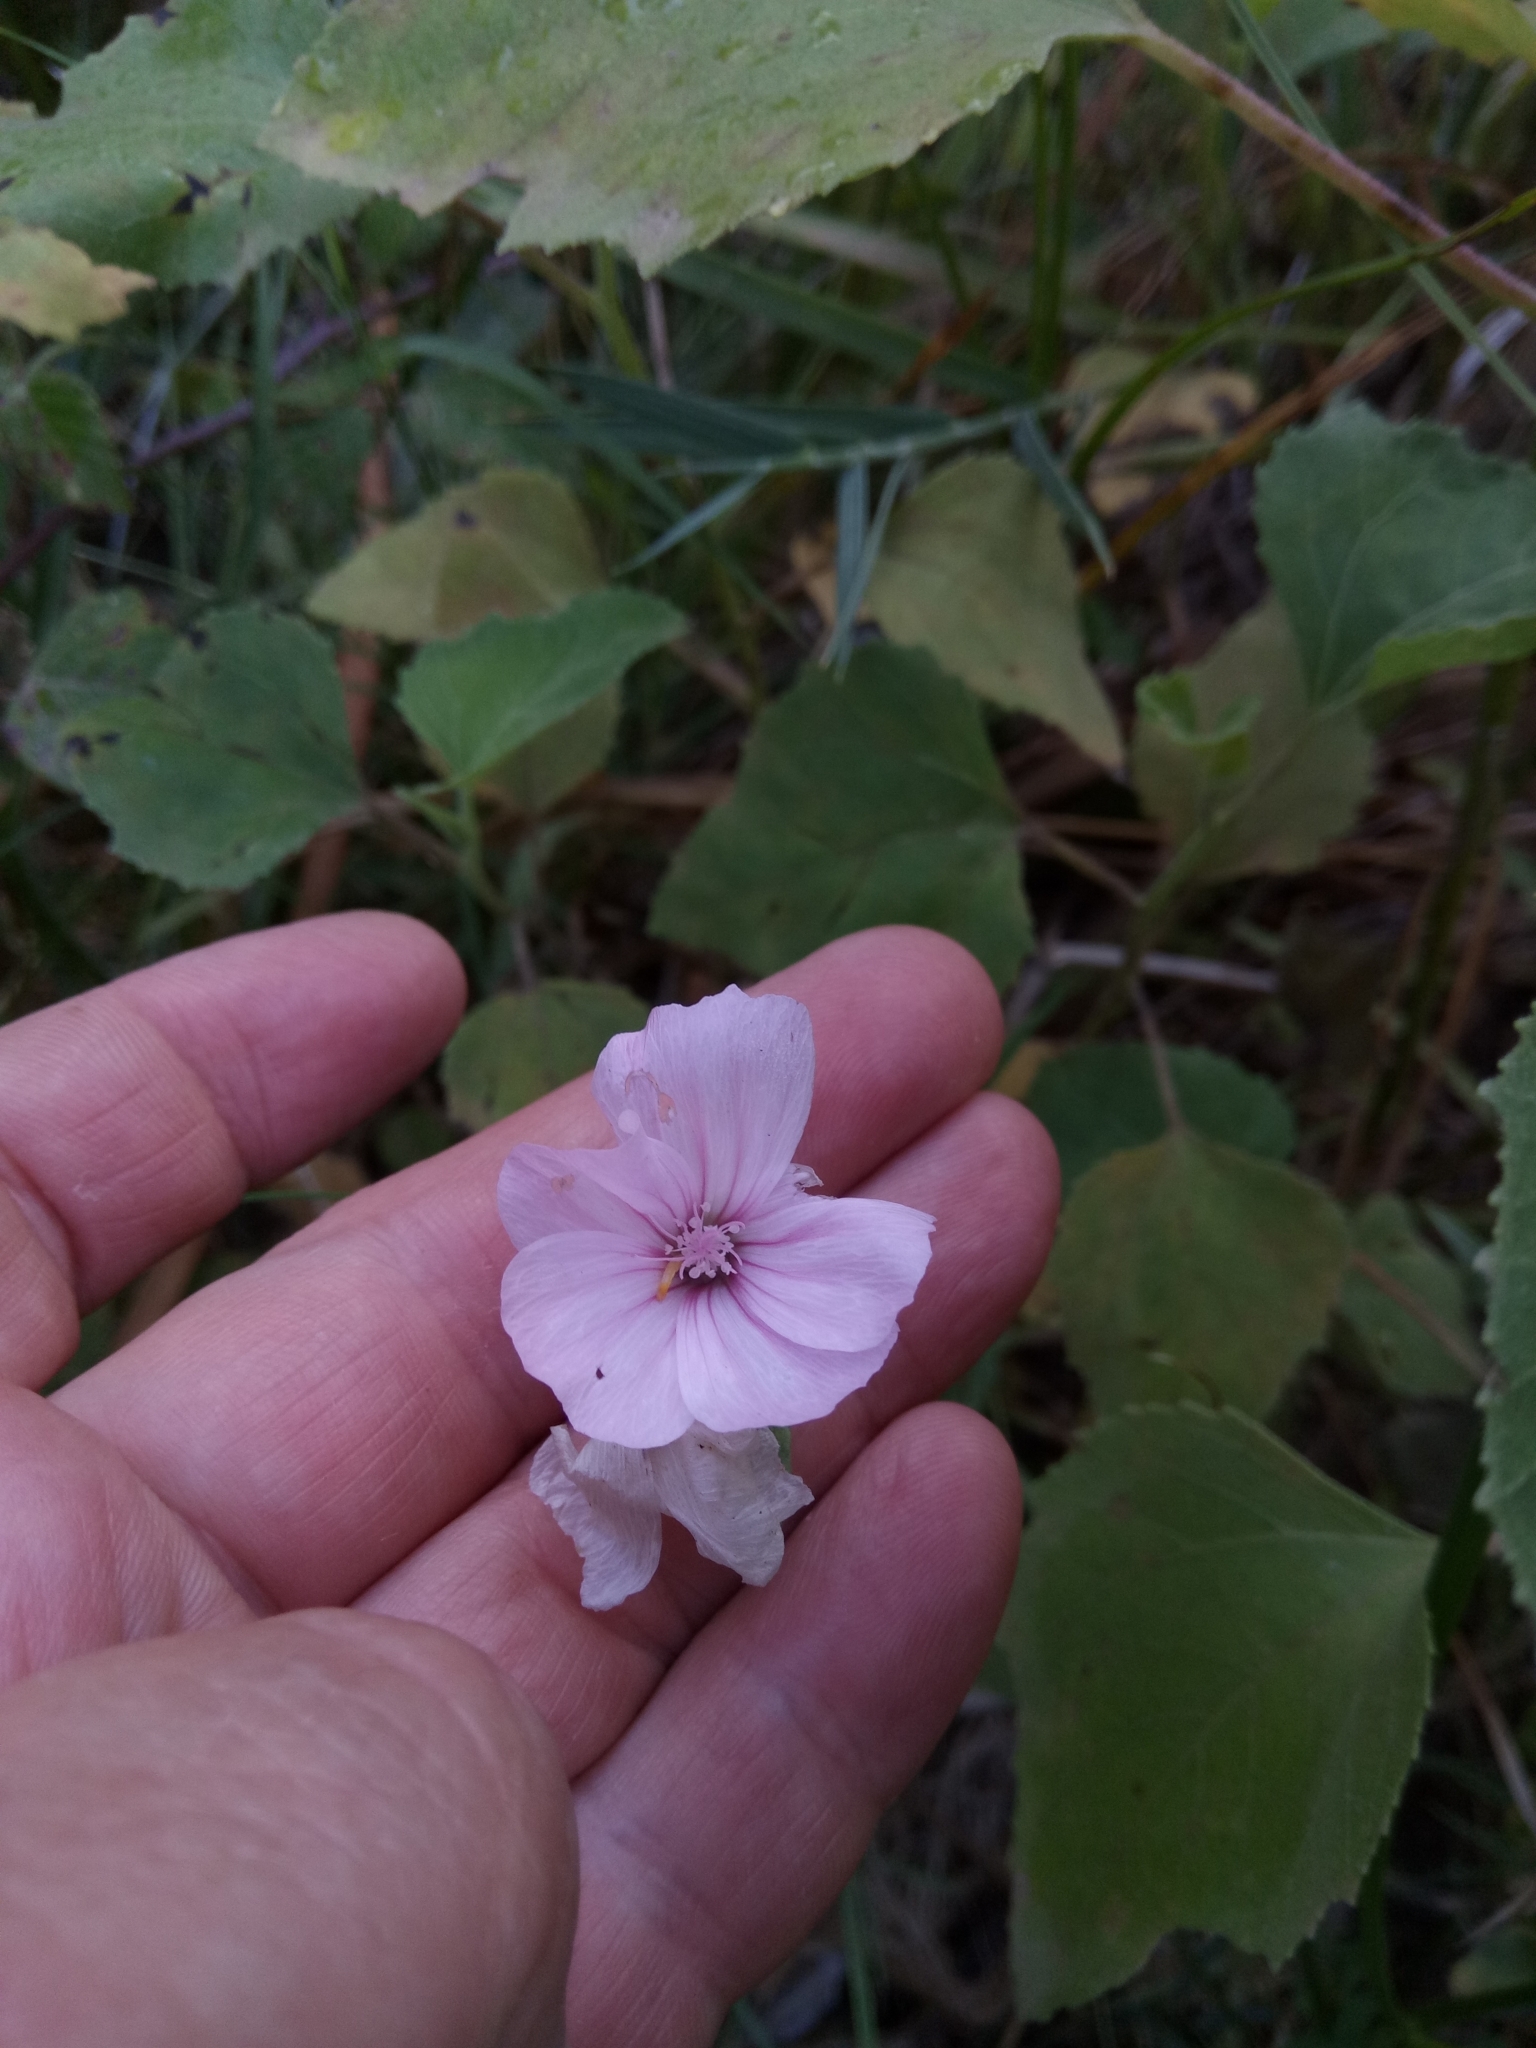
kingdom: Plantae
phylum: Tracheophyta
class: Magnoliopsida
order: Malvales
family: Malvaceae
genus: Malva
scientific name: Malva trimestris
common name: Royal mallow
